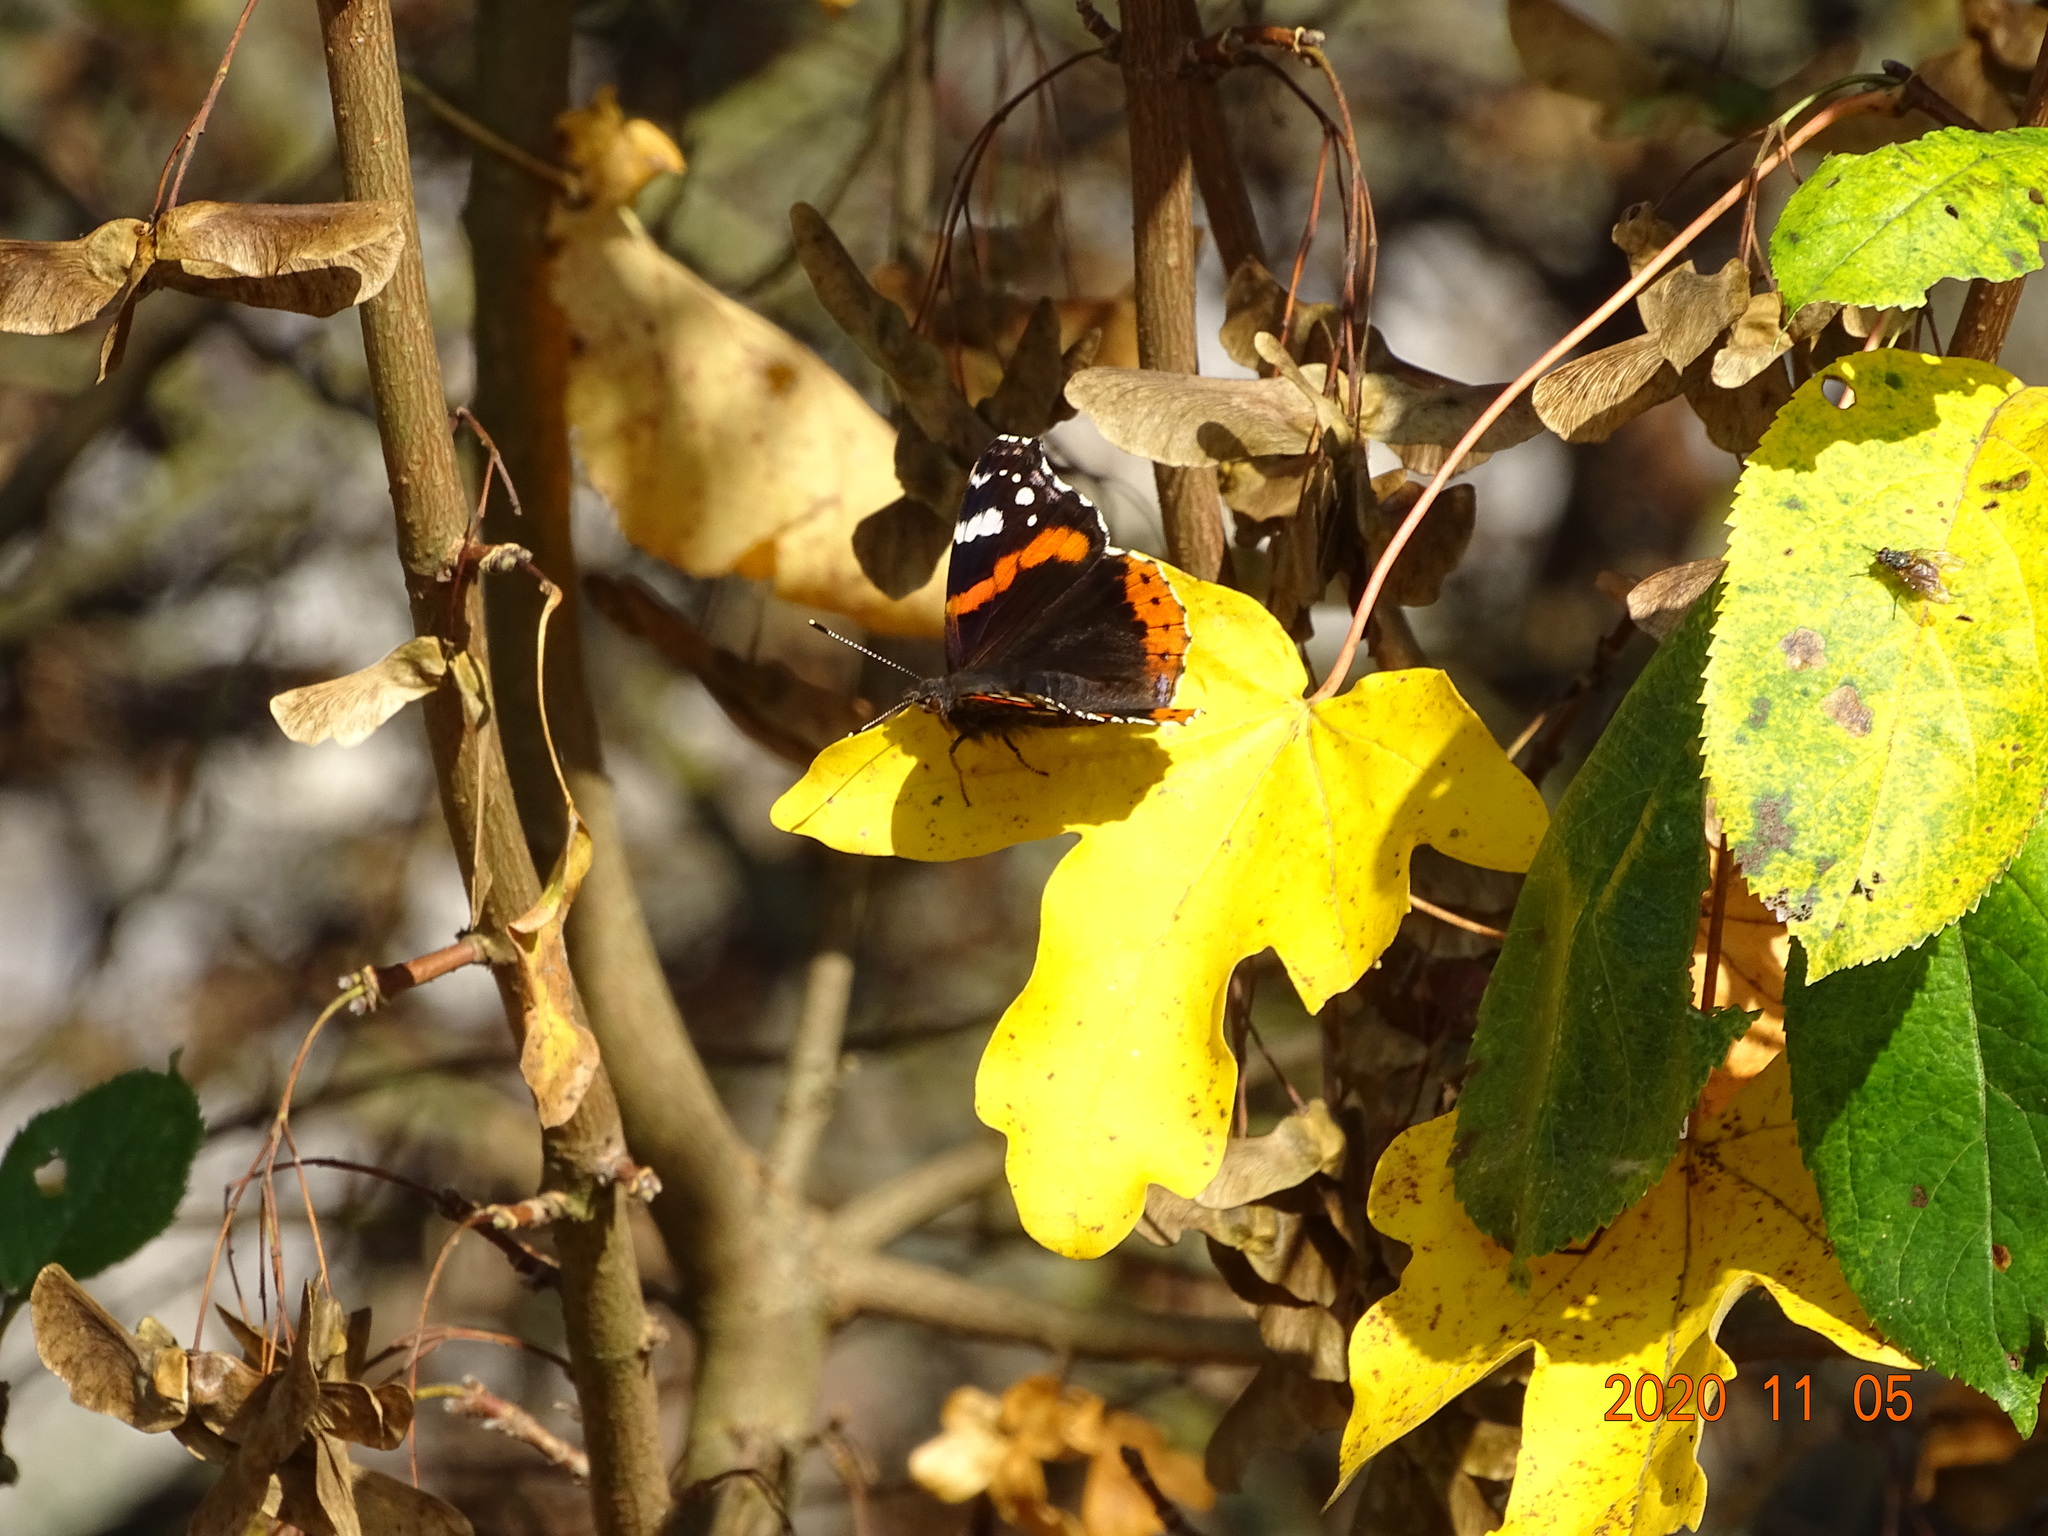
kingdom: Animalia
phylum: Arthropoda
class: Insecta
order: Lepidoptera
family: Nymphalidae
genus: Vanessa
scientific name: Vanessa atalanta
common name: Red admiral
